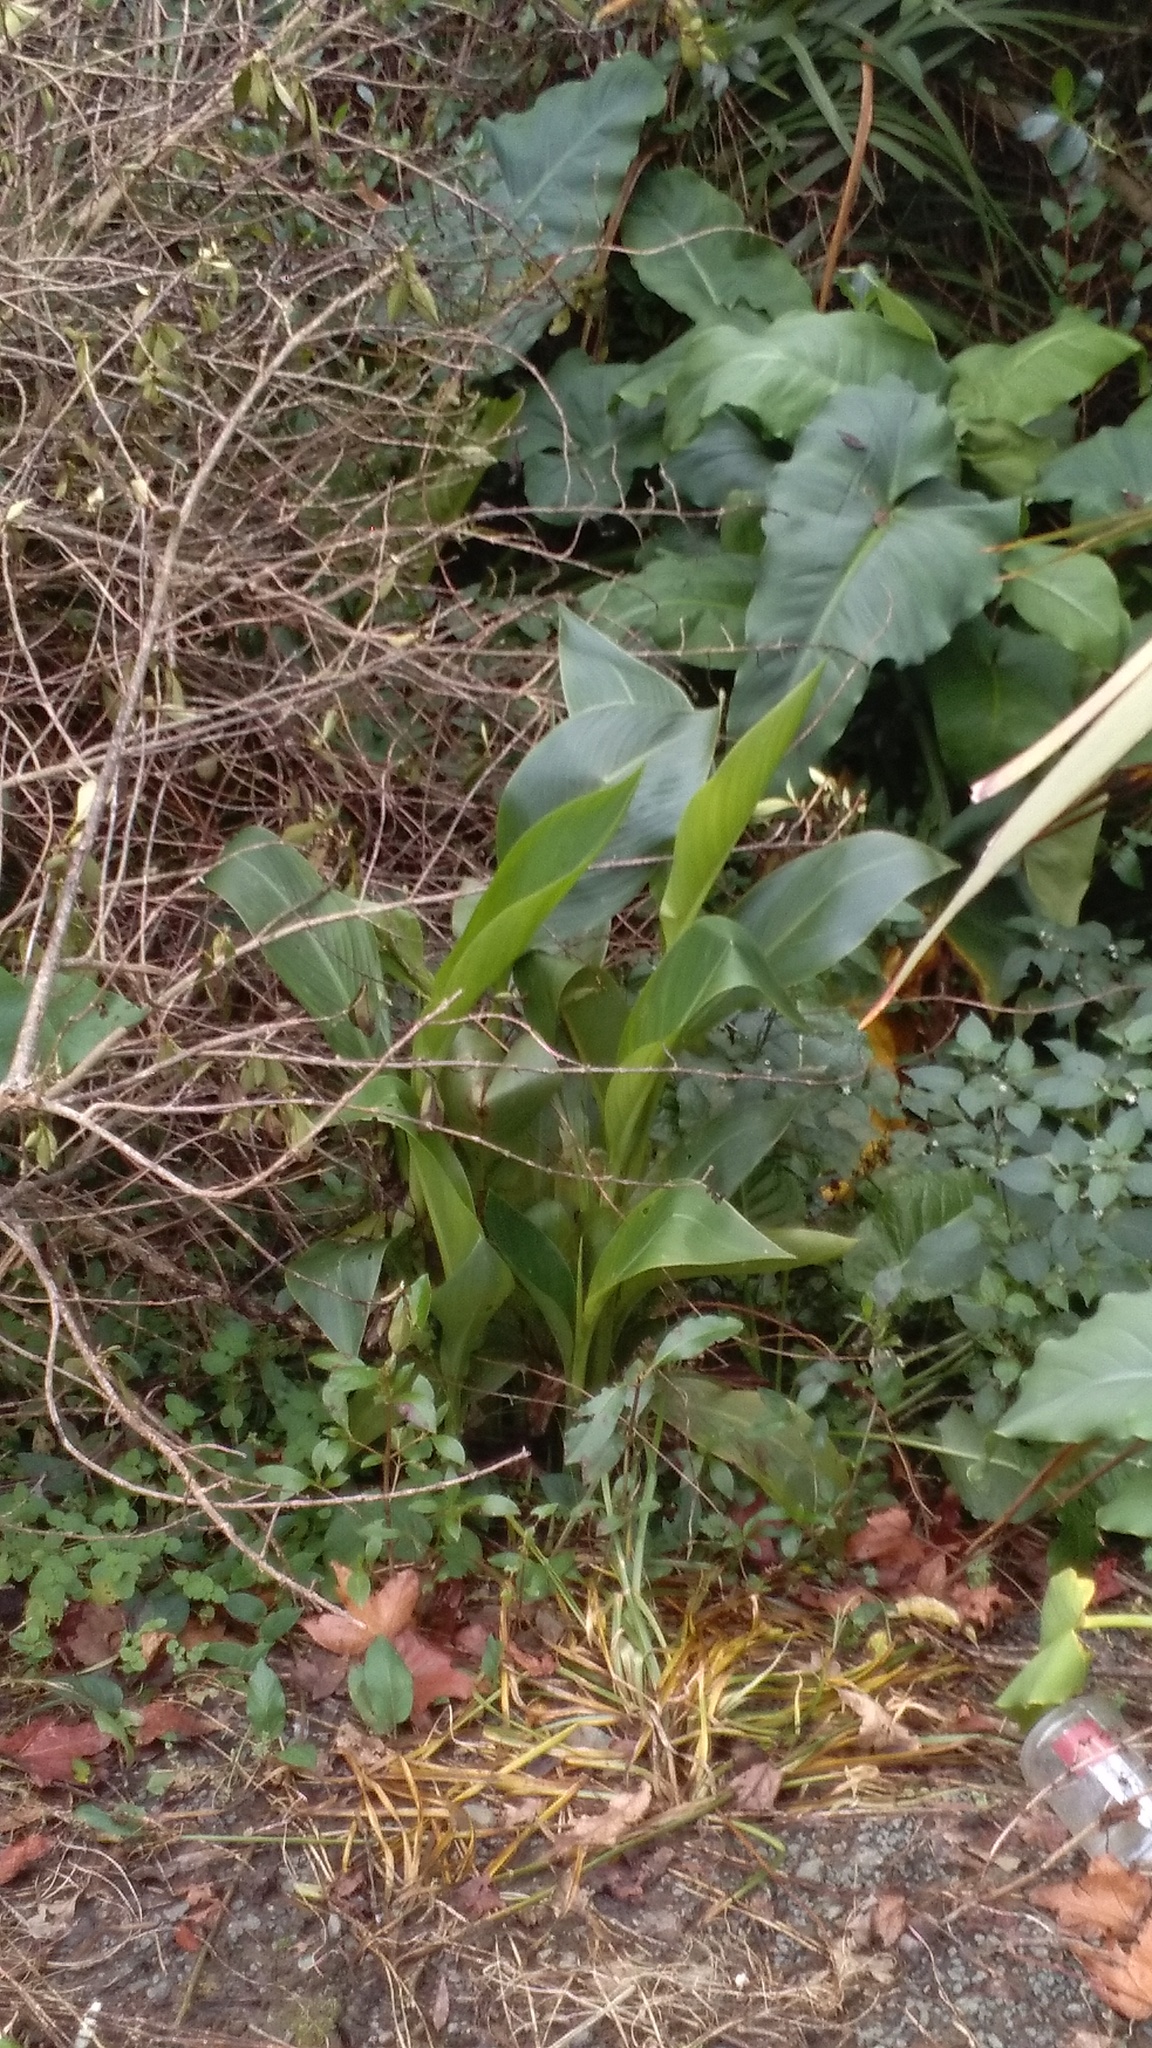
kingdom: Plantae
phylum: Tracheophyta
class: Liliopsida
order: Alismatales
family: Araceae
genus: Zantedeschia
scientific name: Zantedeschia aethiopica
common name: Altar-lily
